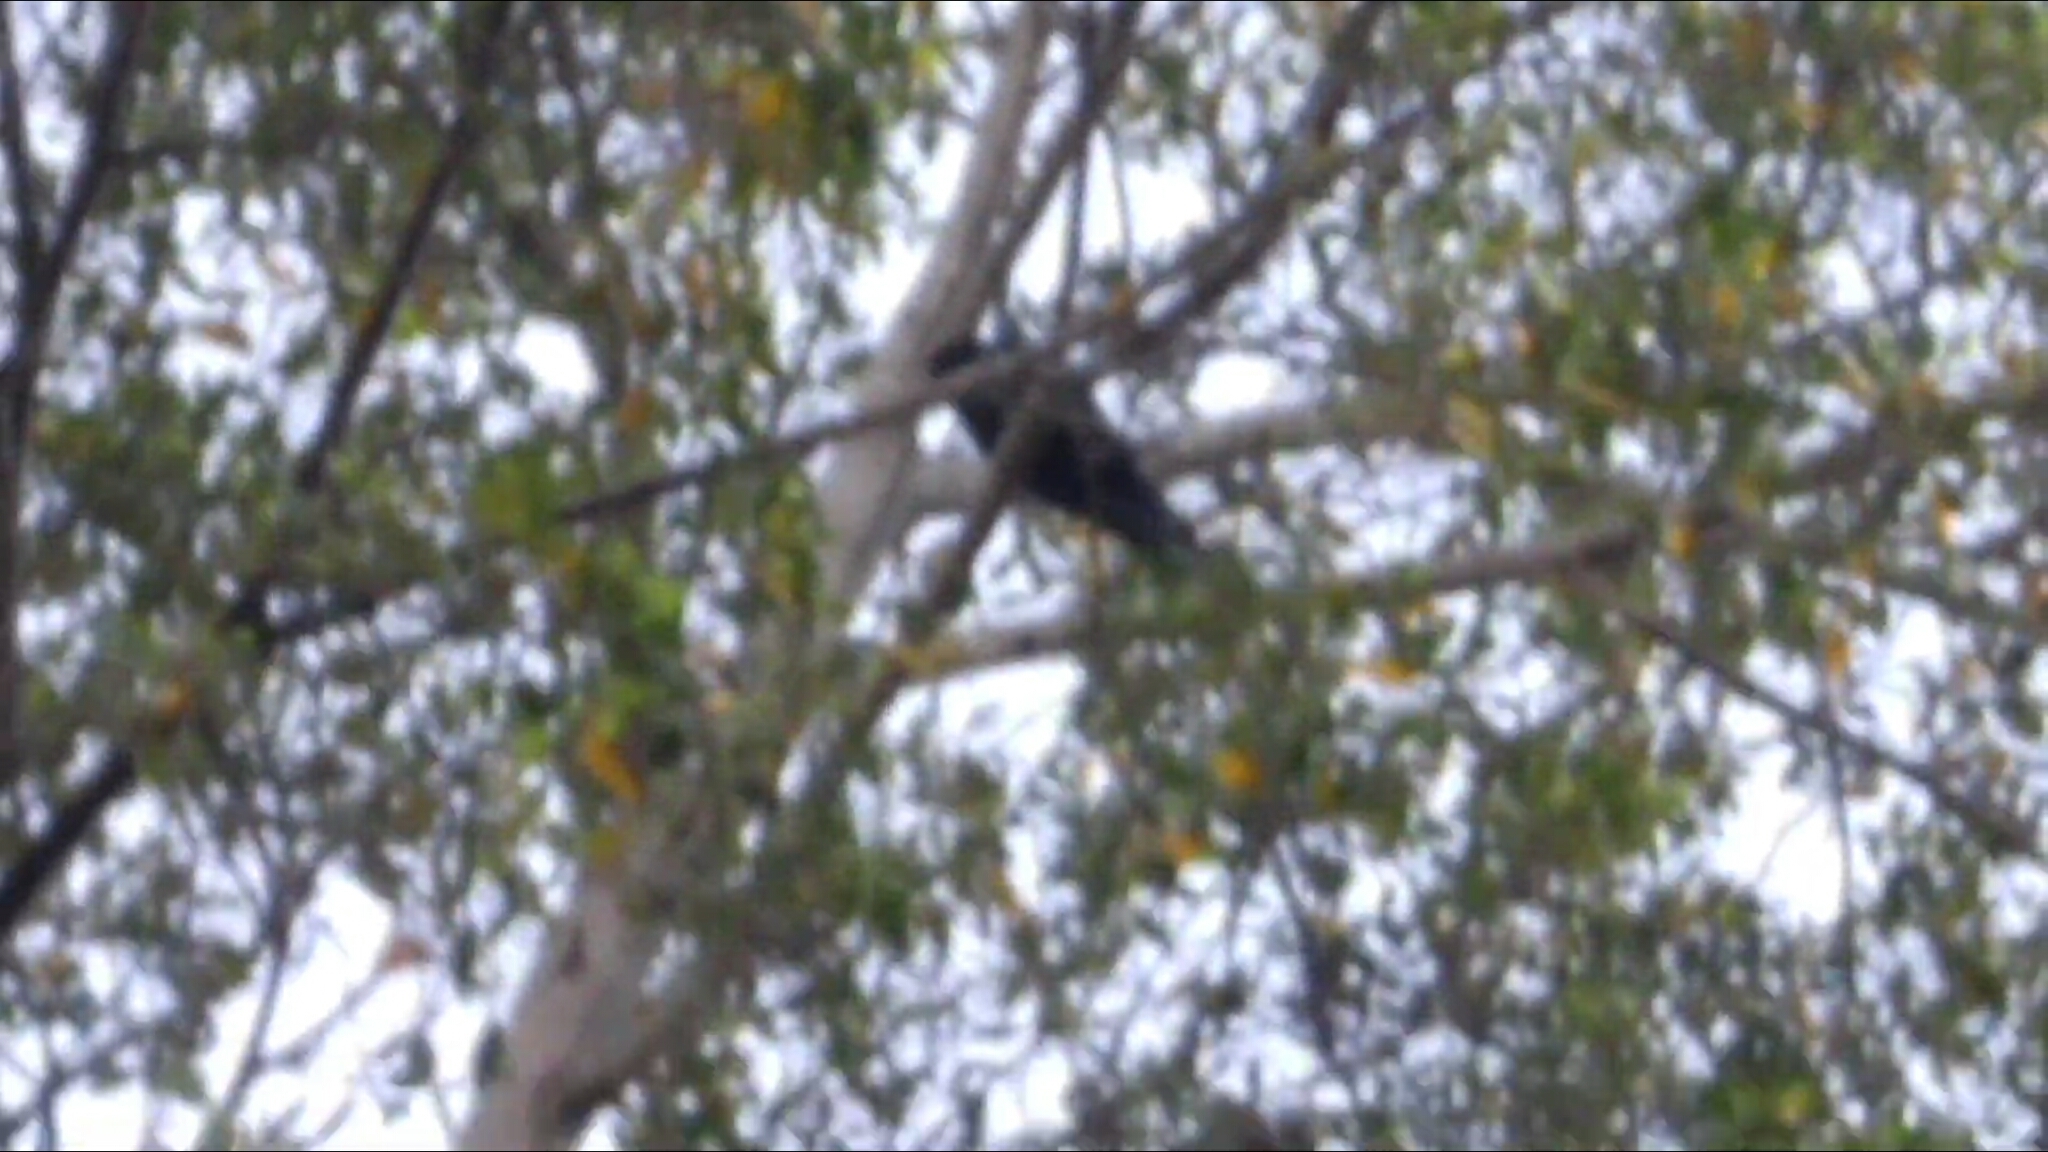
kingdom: Animalia
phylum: Chordata
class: Aves
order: Cuculiformes
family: Cuculidae
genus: Eudynamys
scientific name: Eudynamys scolopaceus
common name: Asian koel
